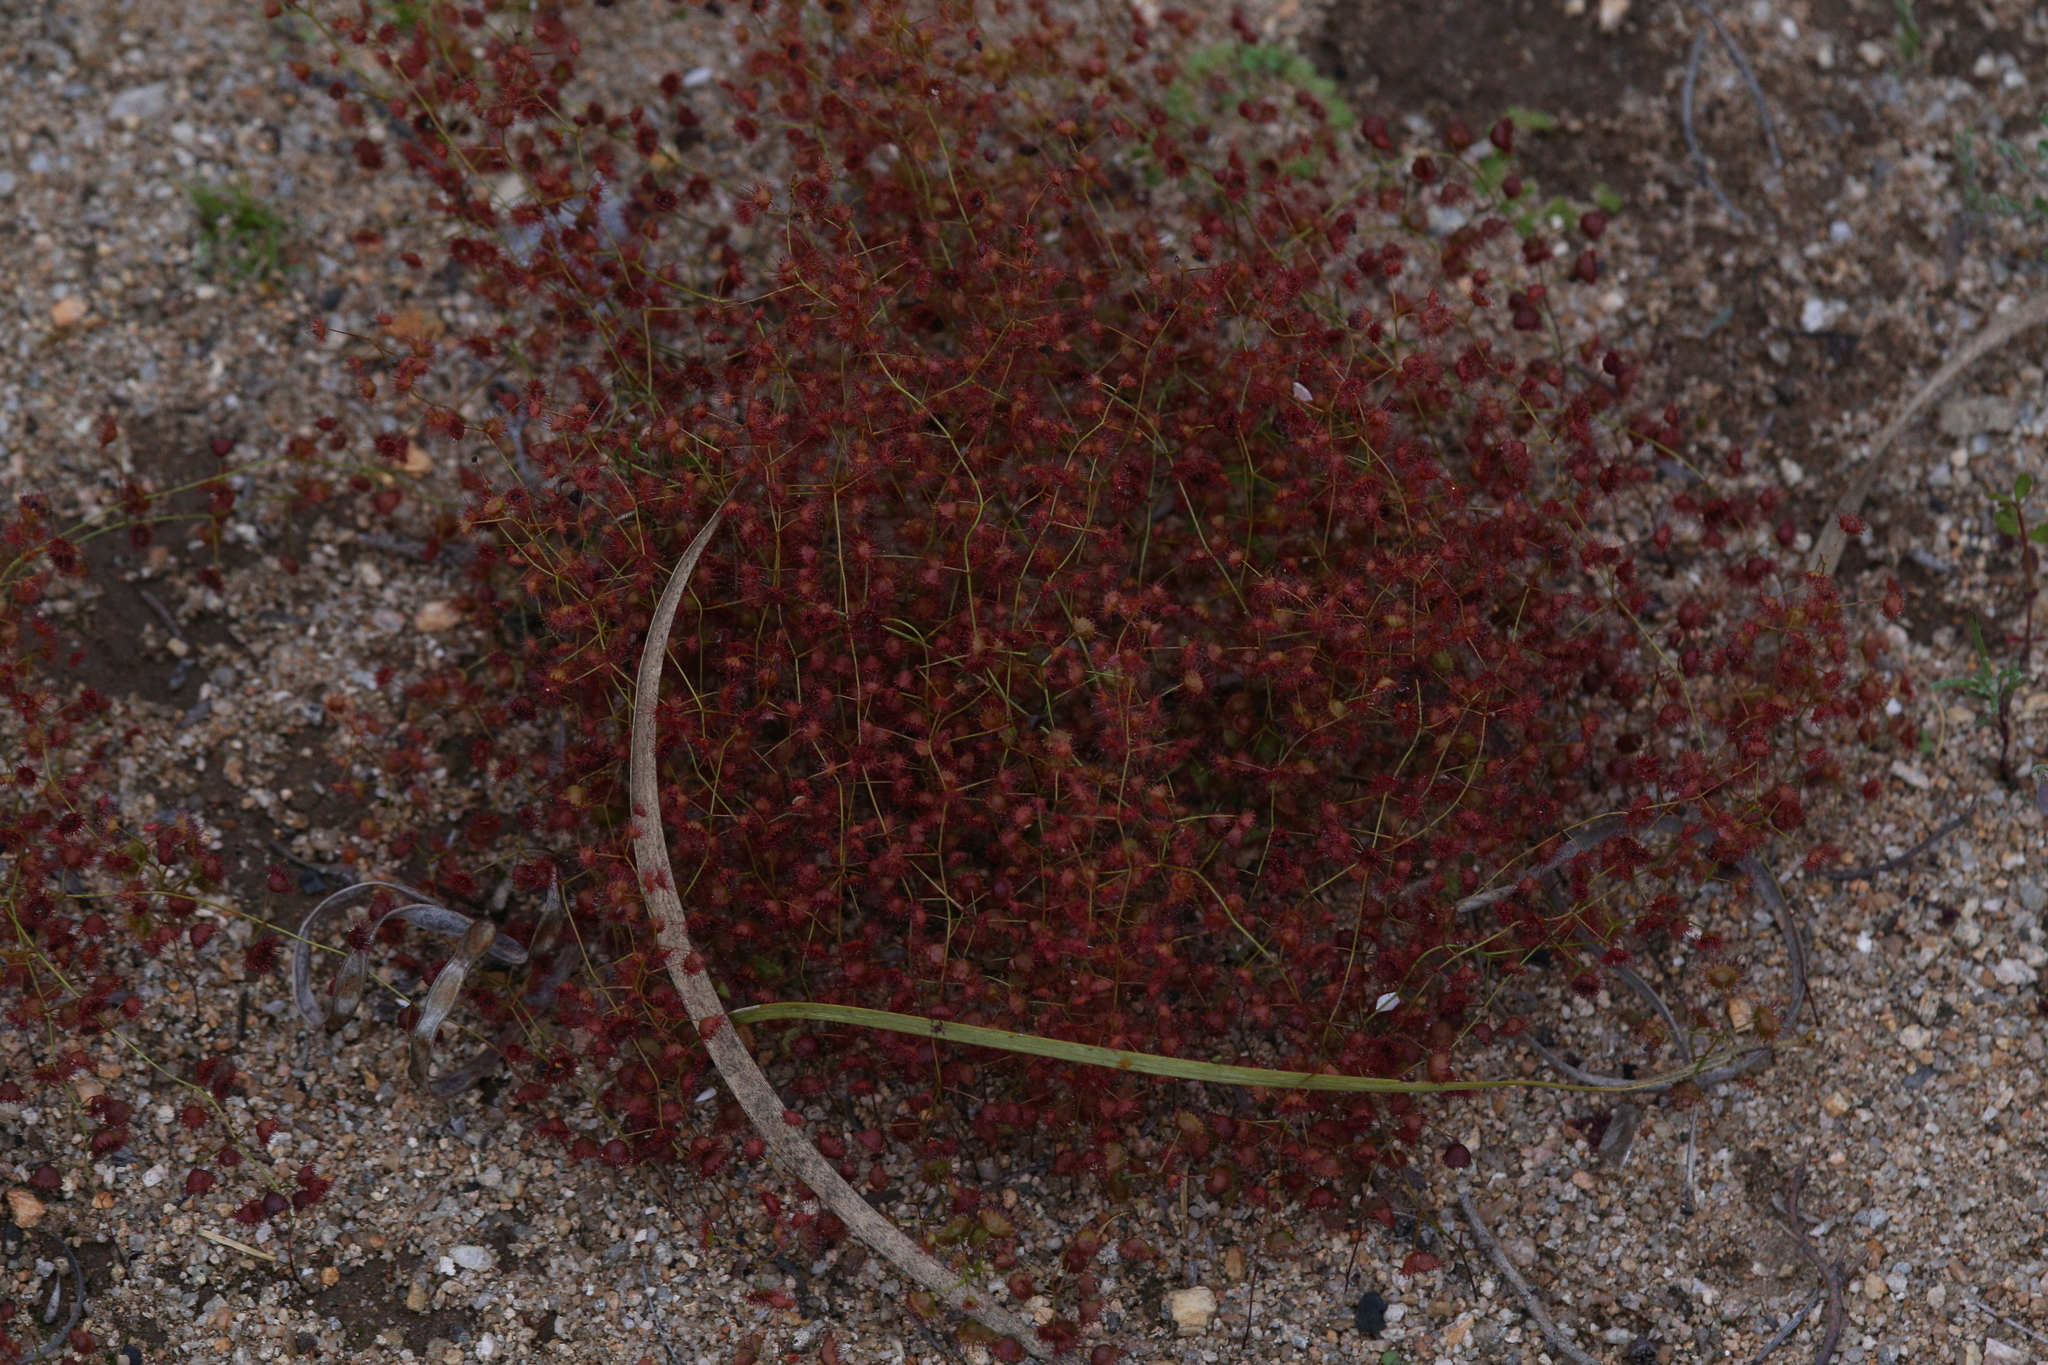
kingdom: Plantae
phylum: Tracheophyta
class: Magnoliopsida
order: Caryophyllales
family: Droseraceae
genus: Drosera
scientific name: Drosera macrantha
